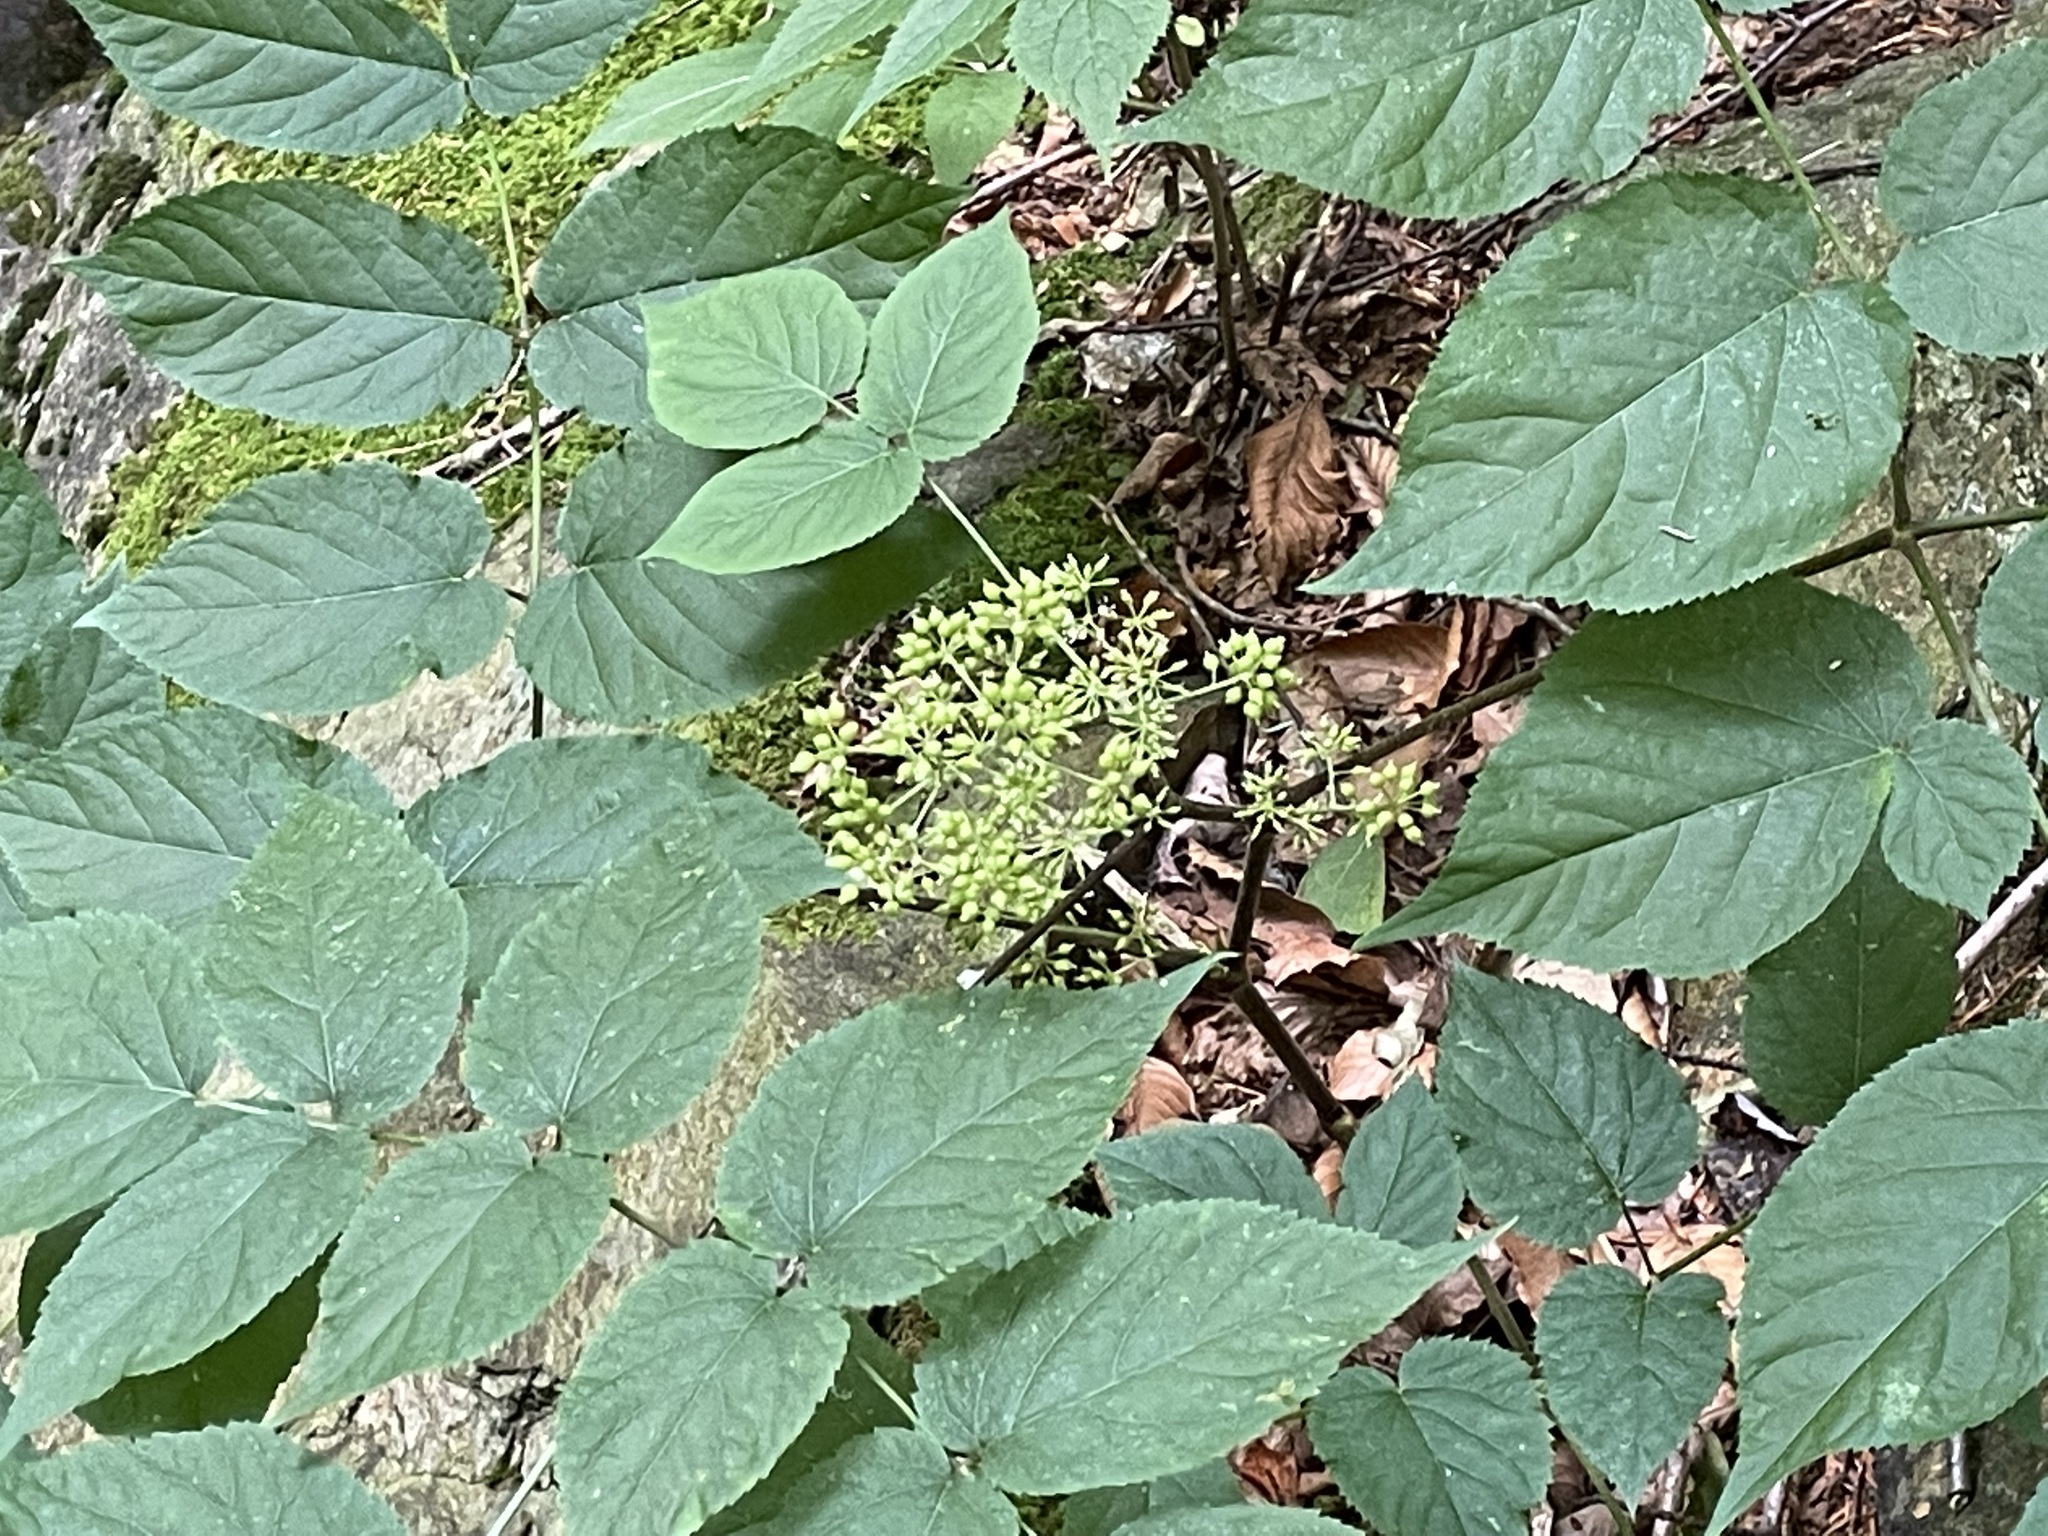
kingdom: Plantae
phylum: Tracheophyta
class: Magnoliopsida
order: Apiales
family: Araliaceae
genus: Aralia
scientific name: Aralia racemosa
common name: American-spikenard
